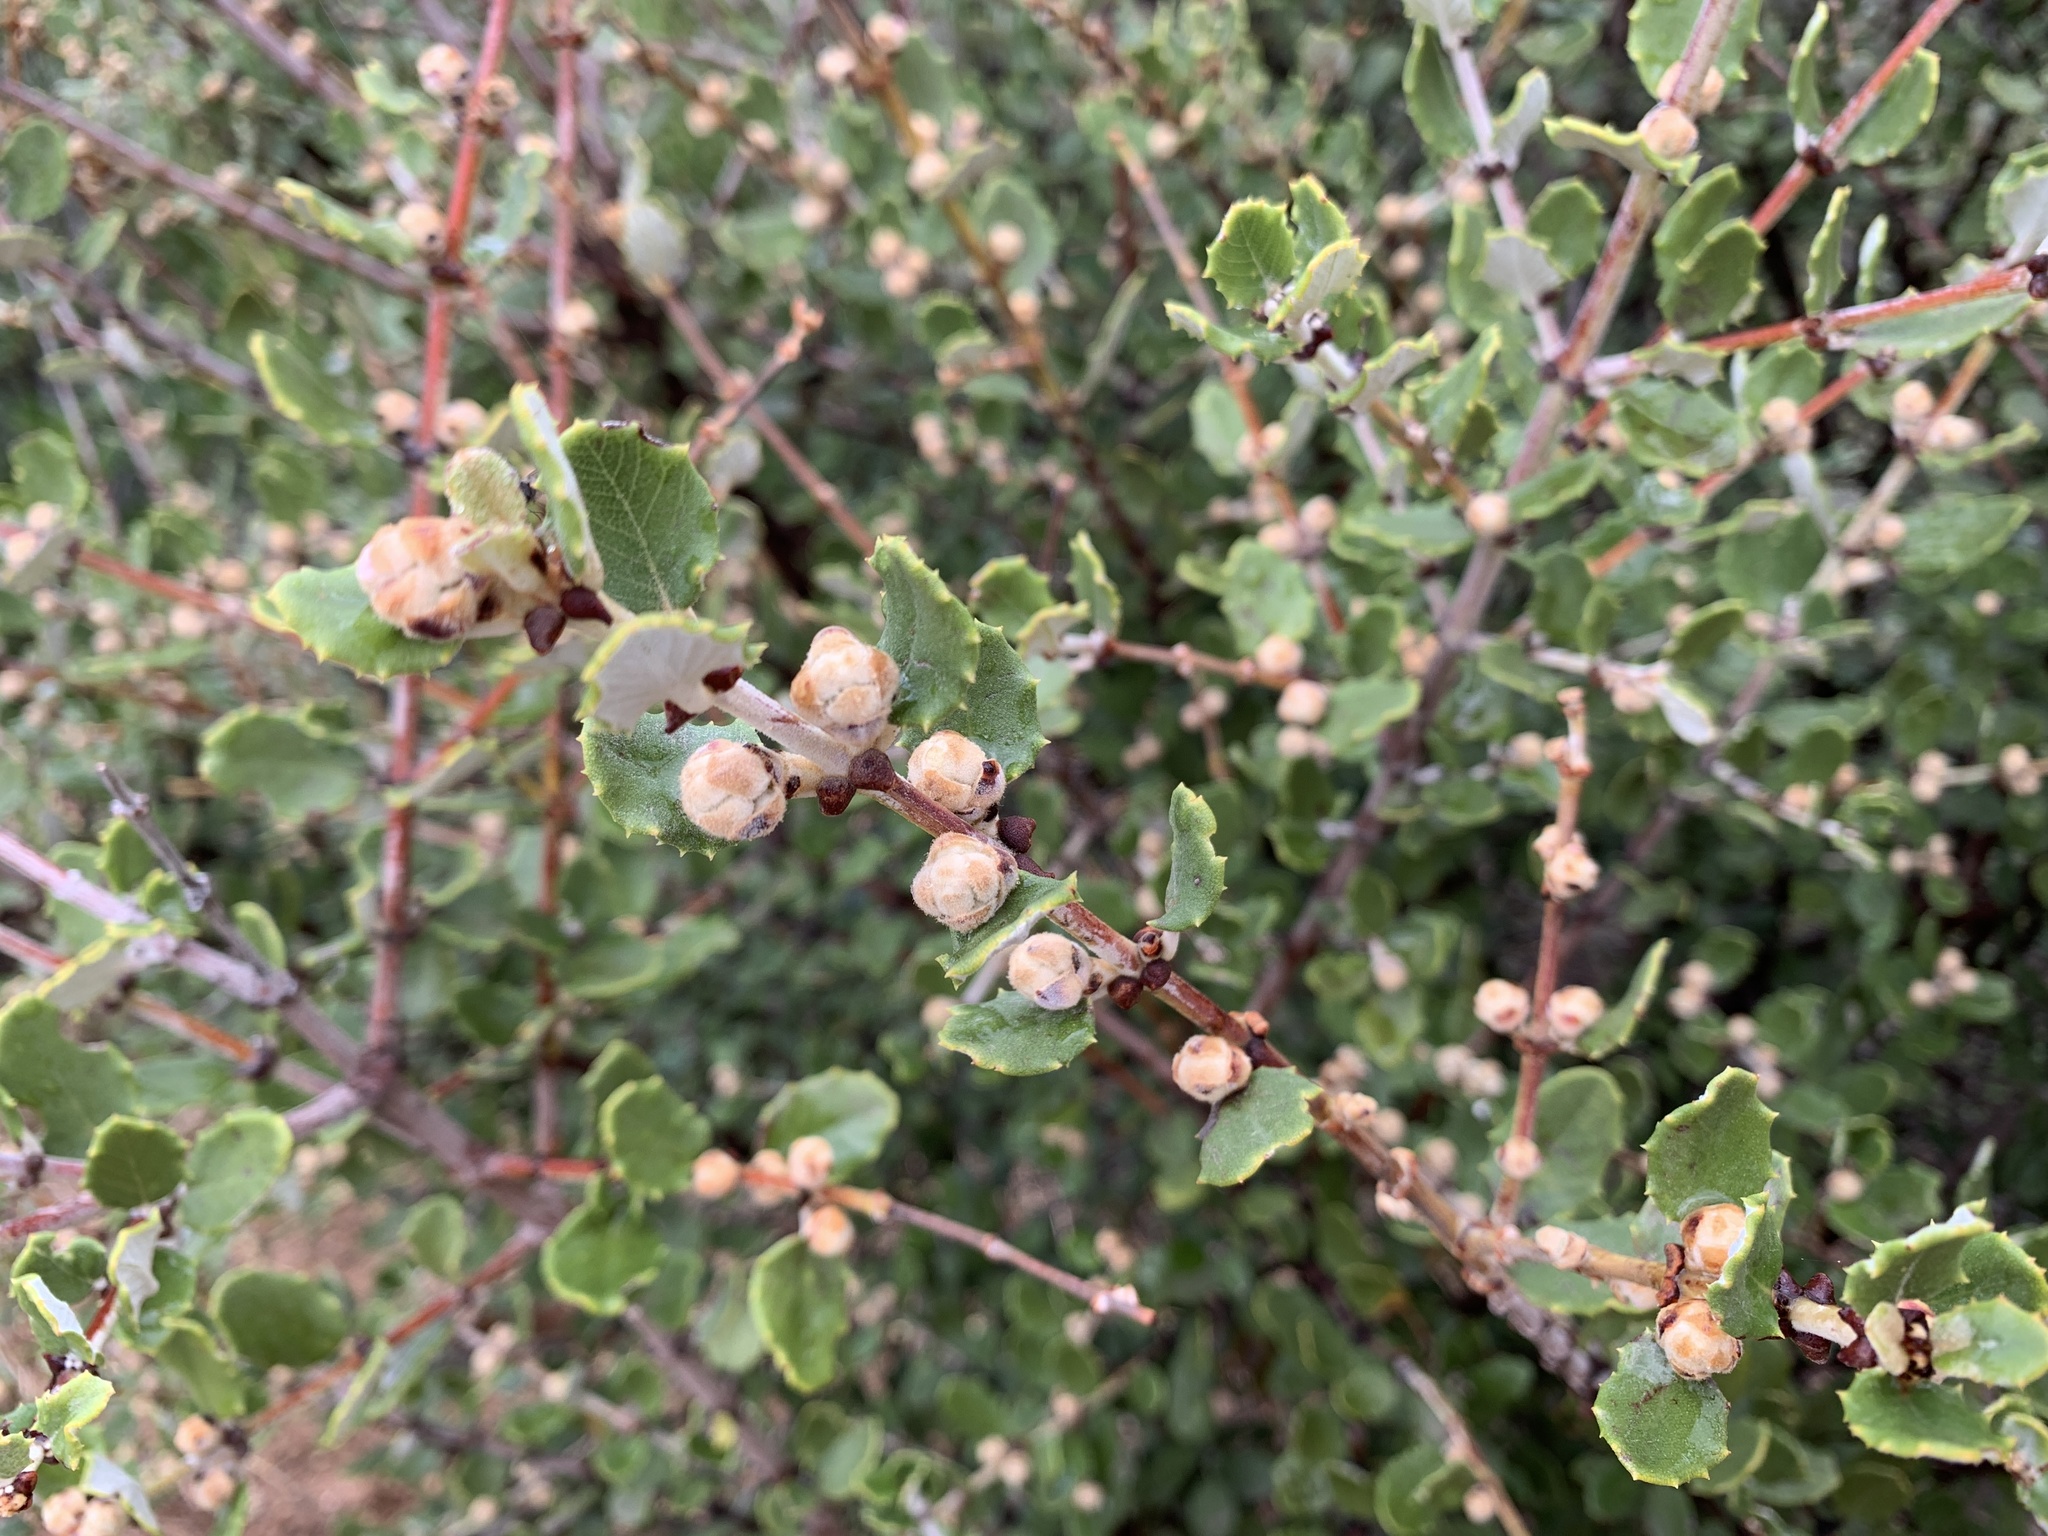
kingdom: Plantae
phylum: Tracheophyta
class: Magnoliopsida
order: Rosales
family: Rhamnaceae
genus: Ceanothus
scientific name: Ceanothus crassifolius
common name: Hoaryleaf ceanothus
